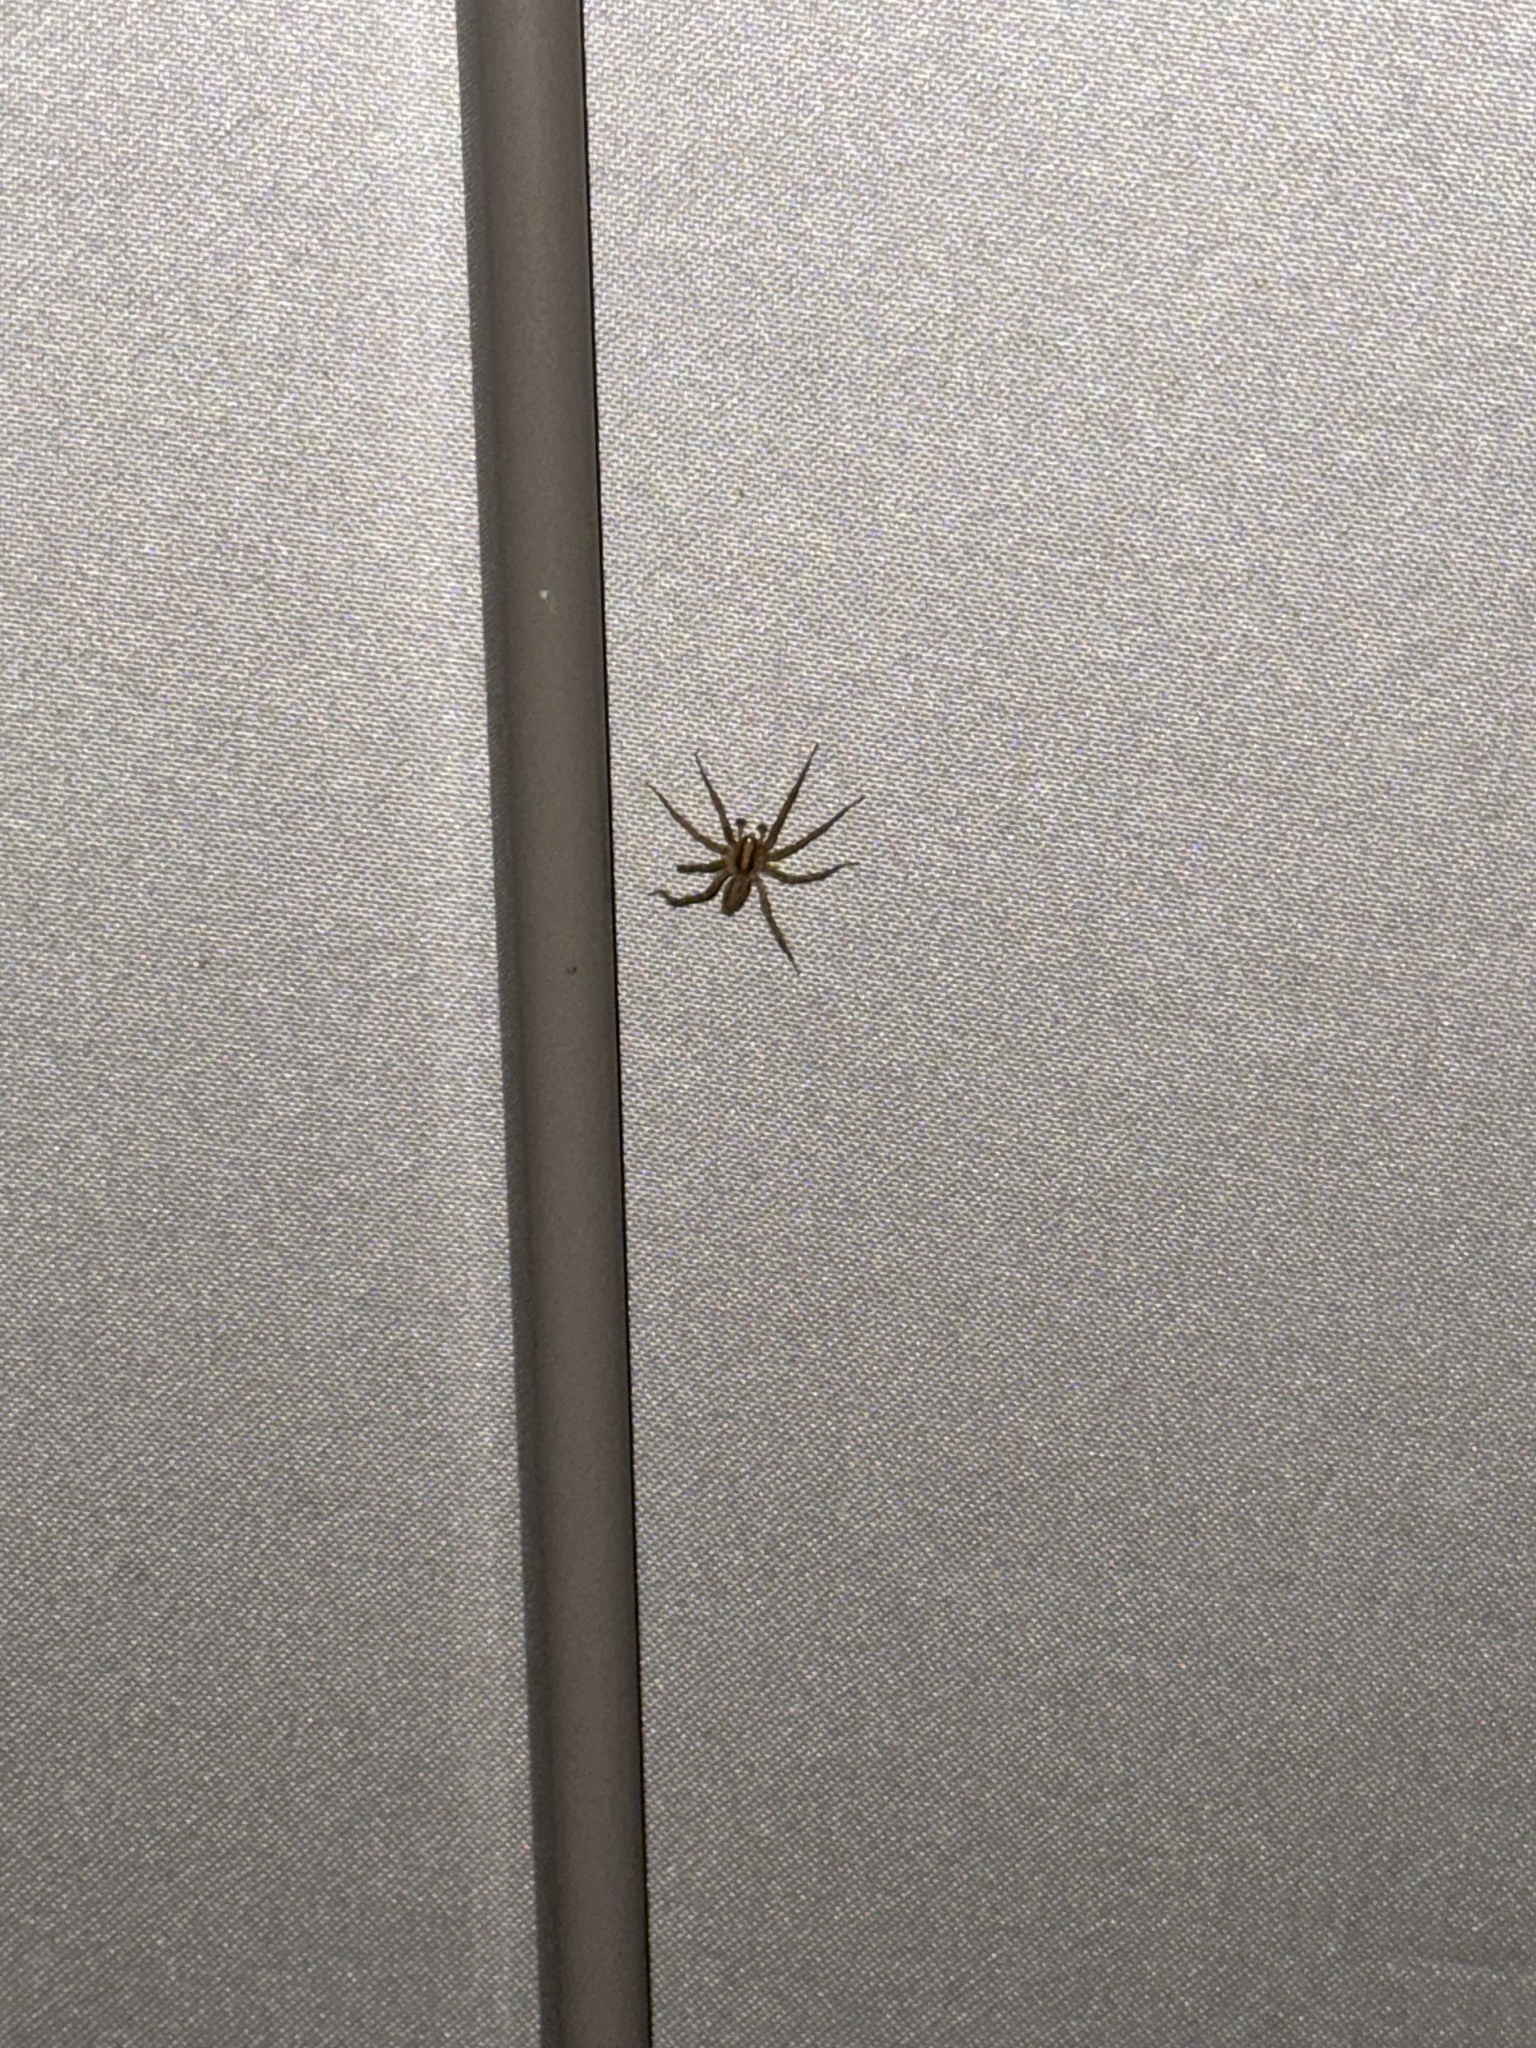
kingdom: Animalia
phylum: Arthropoda
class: Arachnida
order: Araneae
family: Agelenidae
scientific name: Agelenidae
